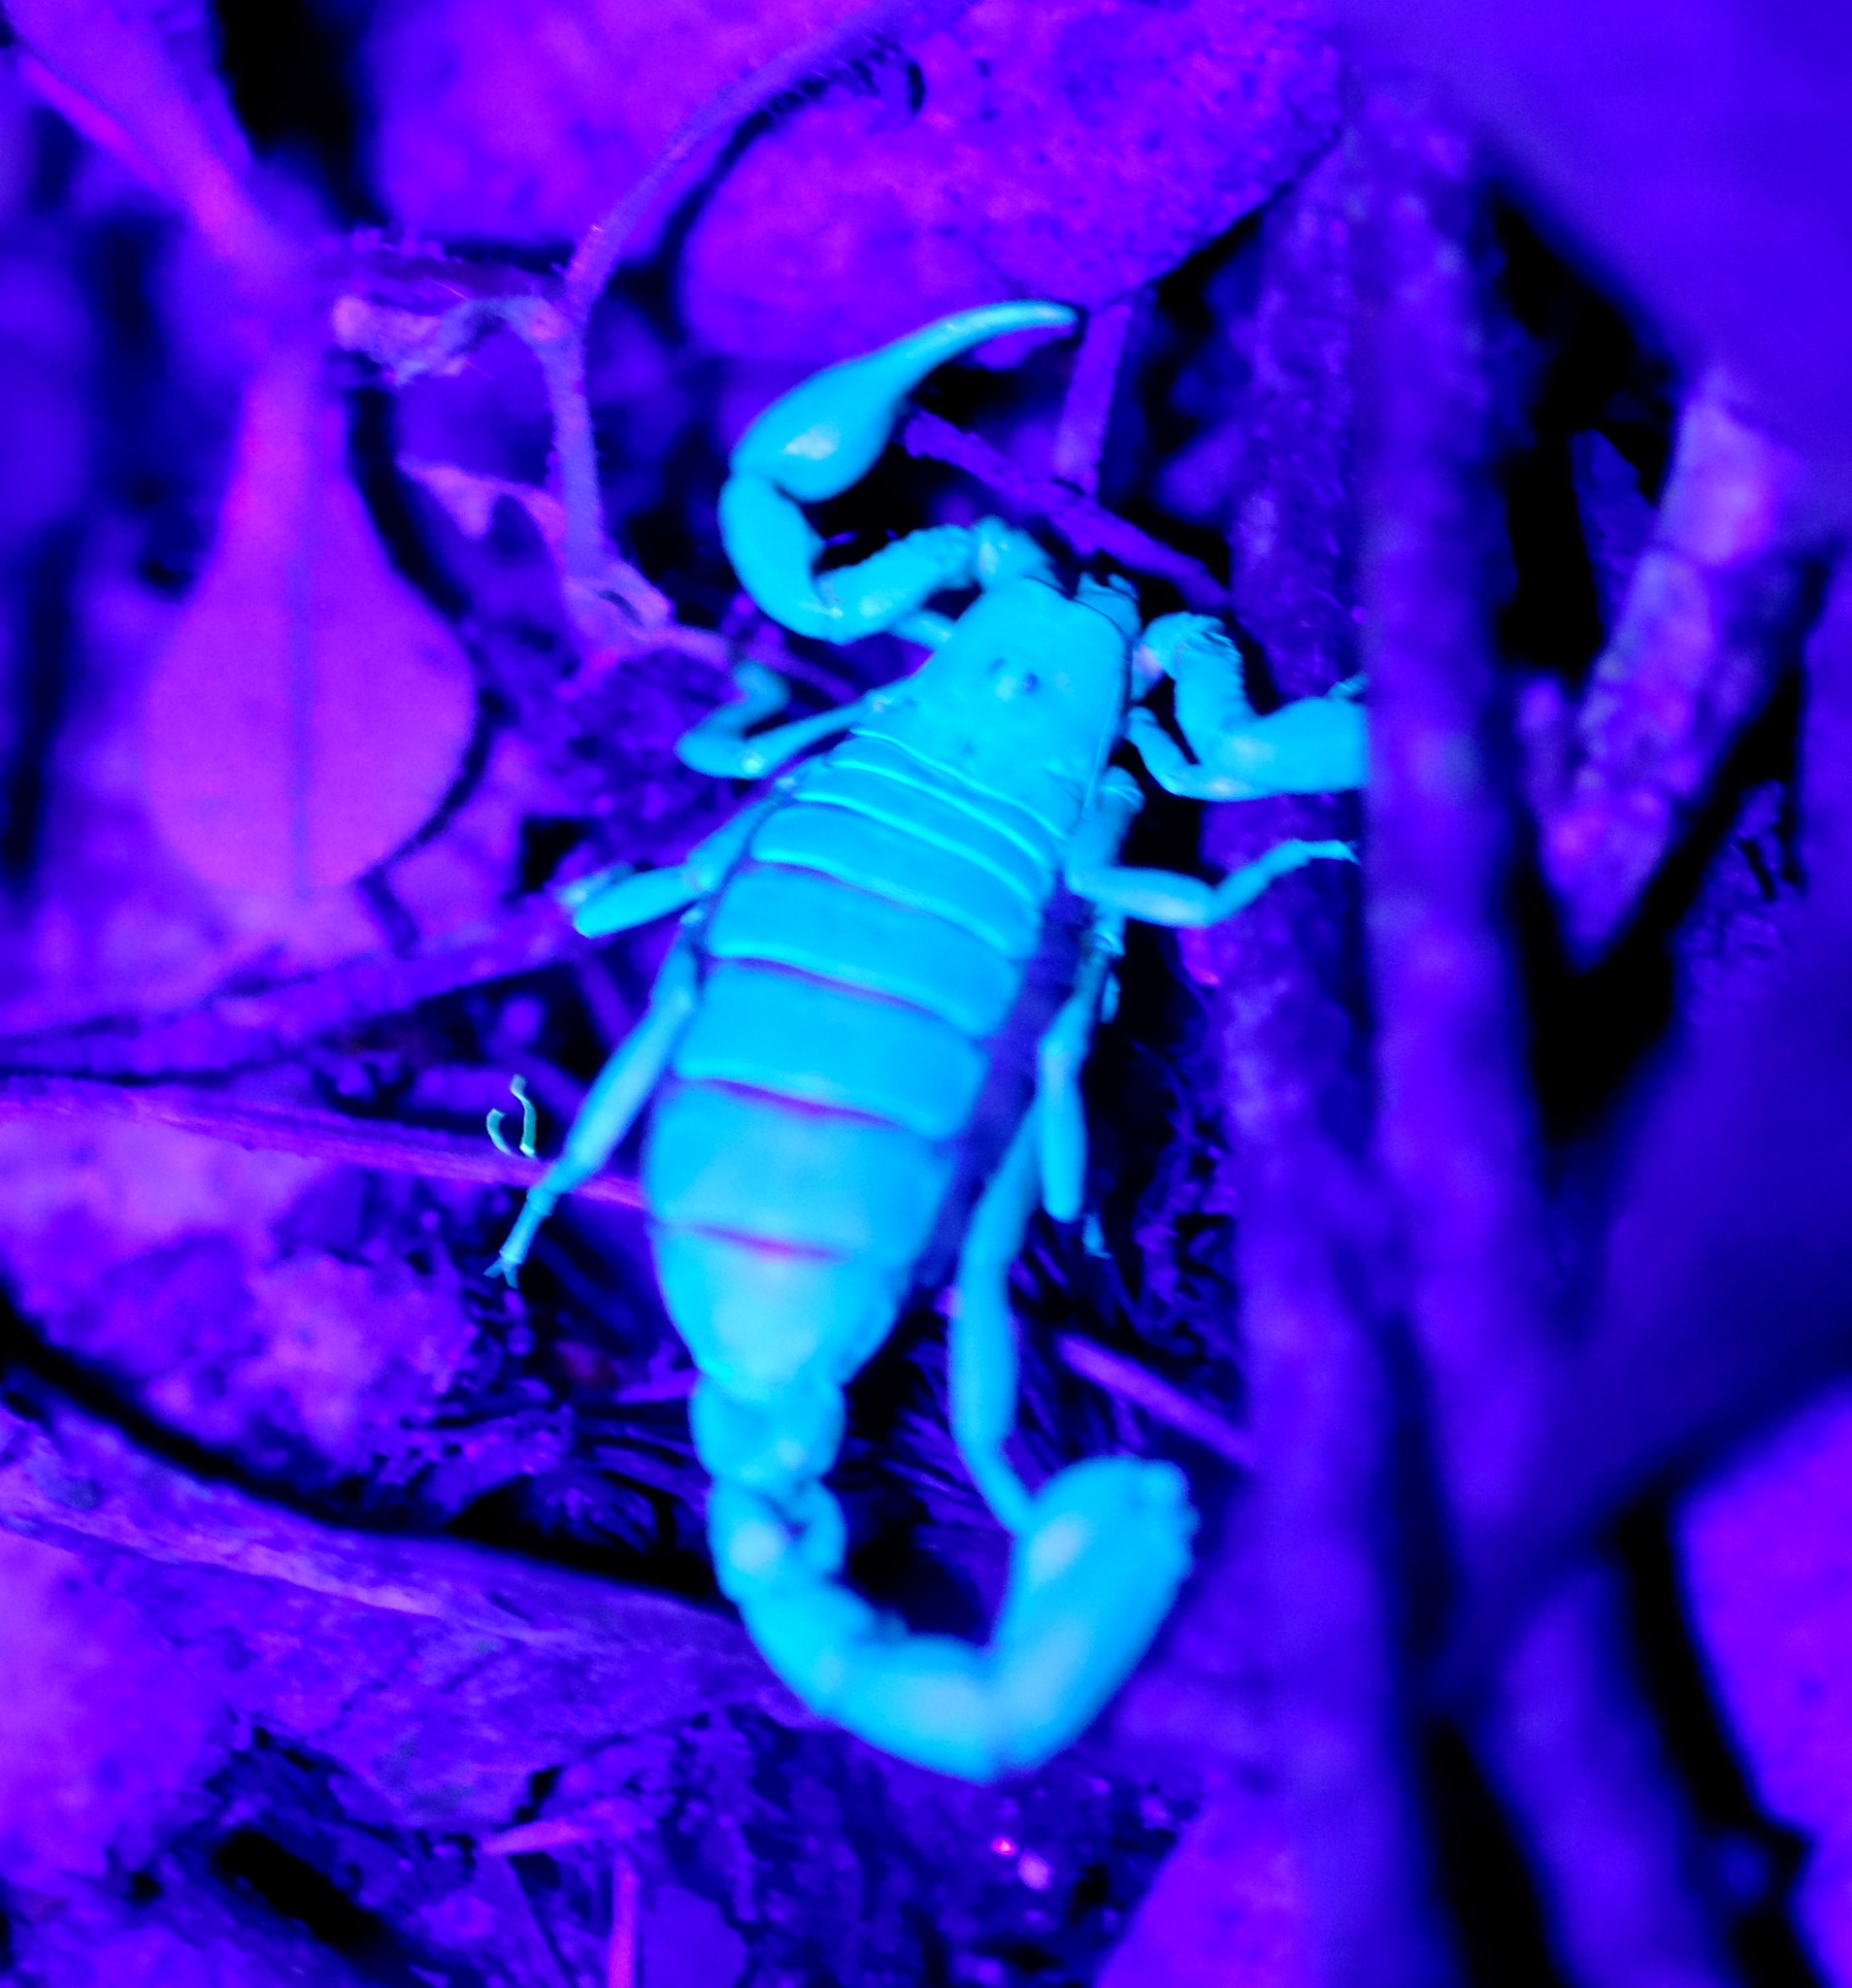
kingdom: Animalia
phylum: Arthropoda
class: Arachnida
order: Scorpiones
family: Bothriuridae
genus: Cercophonius
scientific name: Cercophonius squama
